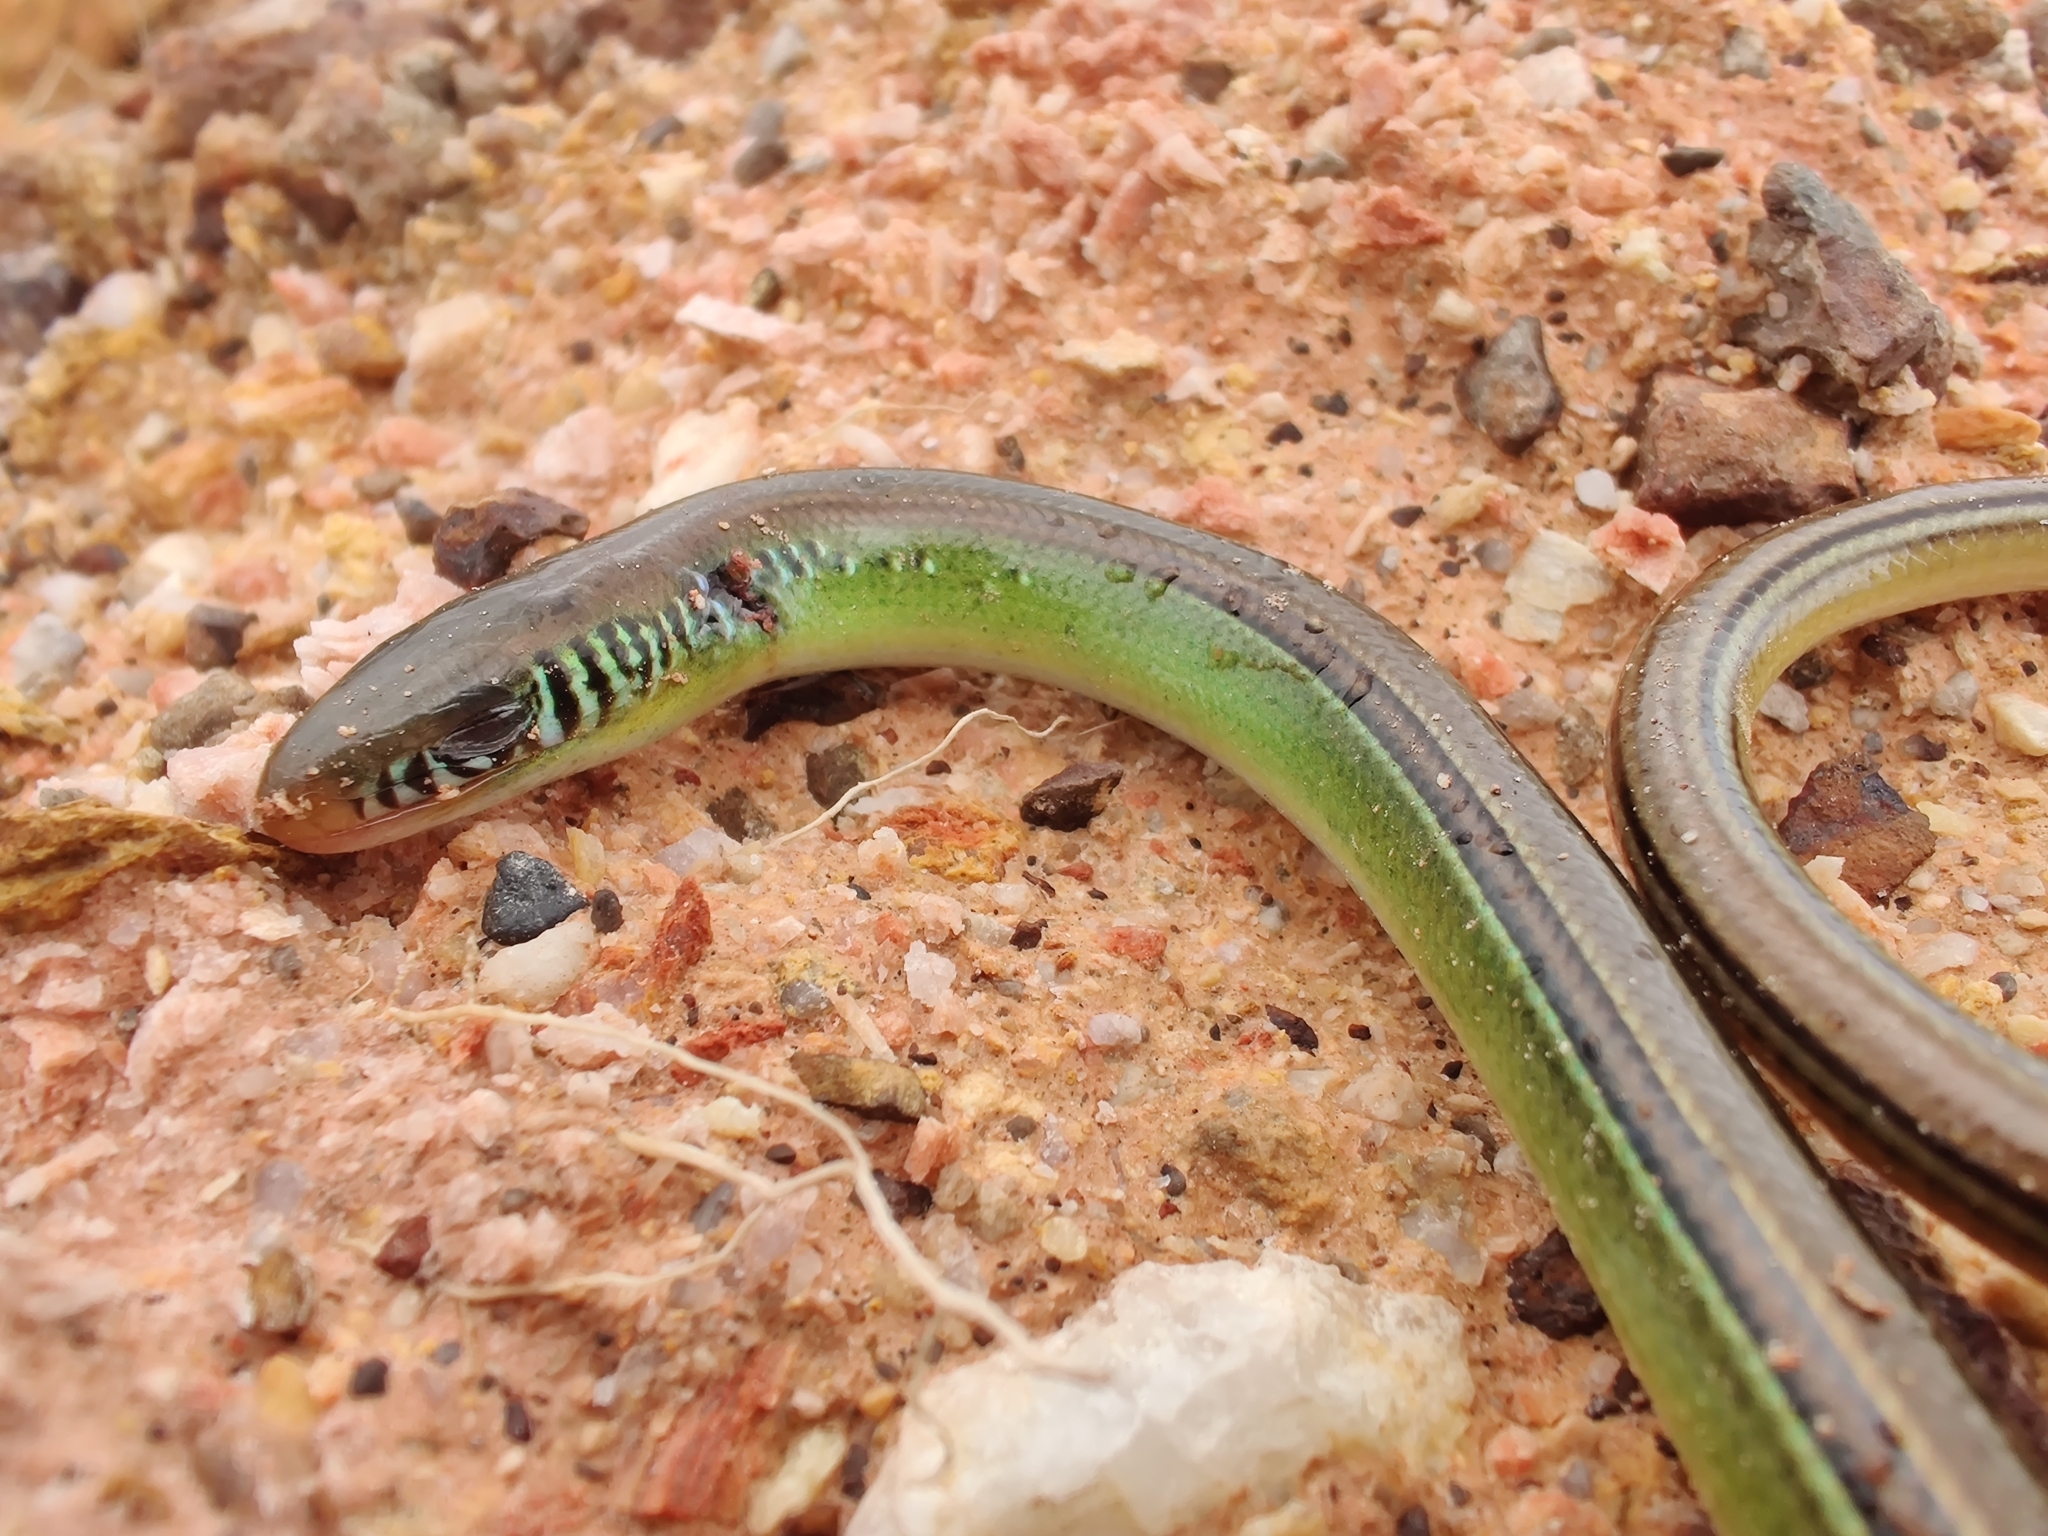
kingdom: Animalia
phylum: Chordata
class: Squamata
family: Diploglossidae
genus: Ophiodes
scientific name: Ophiodes striatus
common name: Striped worm lizard
